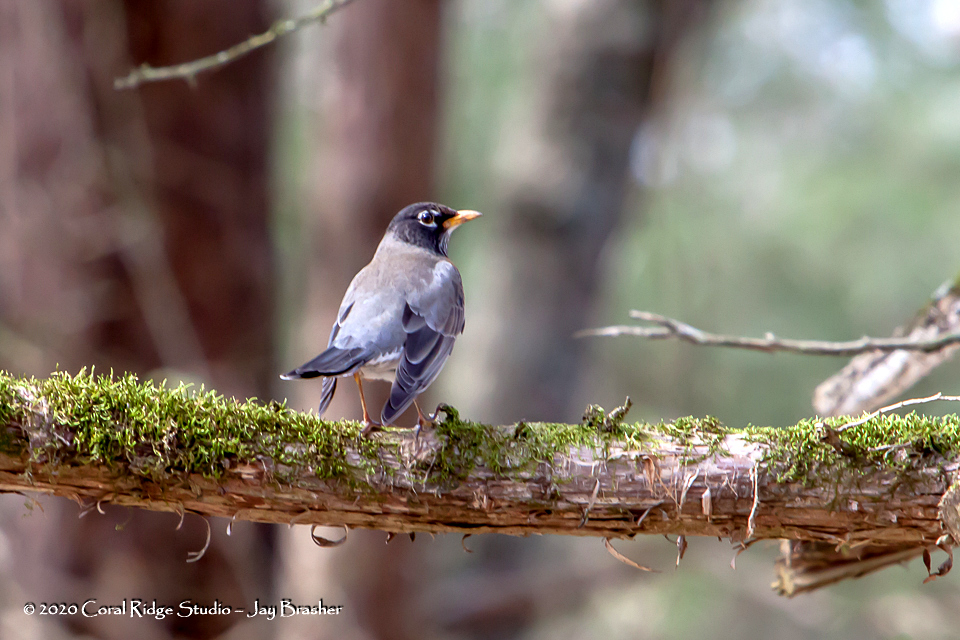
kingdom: Animalia
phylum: Chordata
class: Aves
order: Passeriformes
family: Turdidae
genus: Turdus
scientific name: Turdus migratorius
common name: American robin
